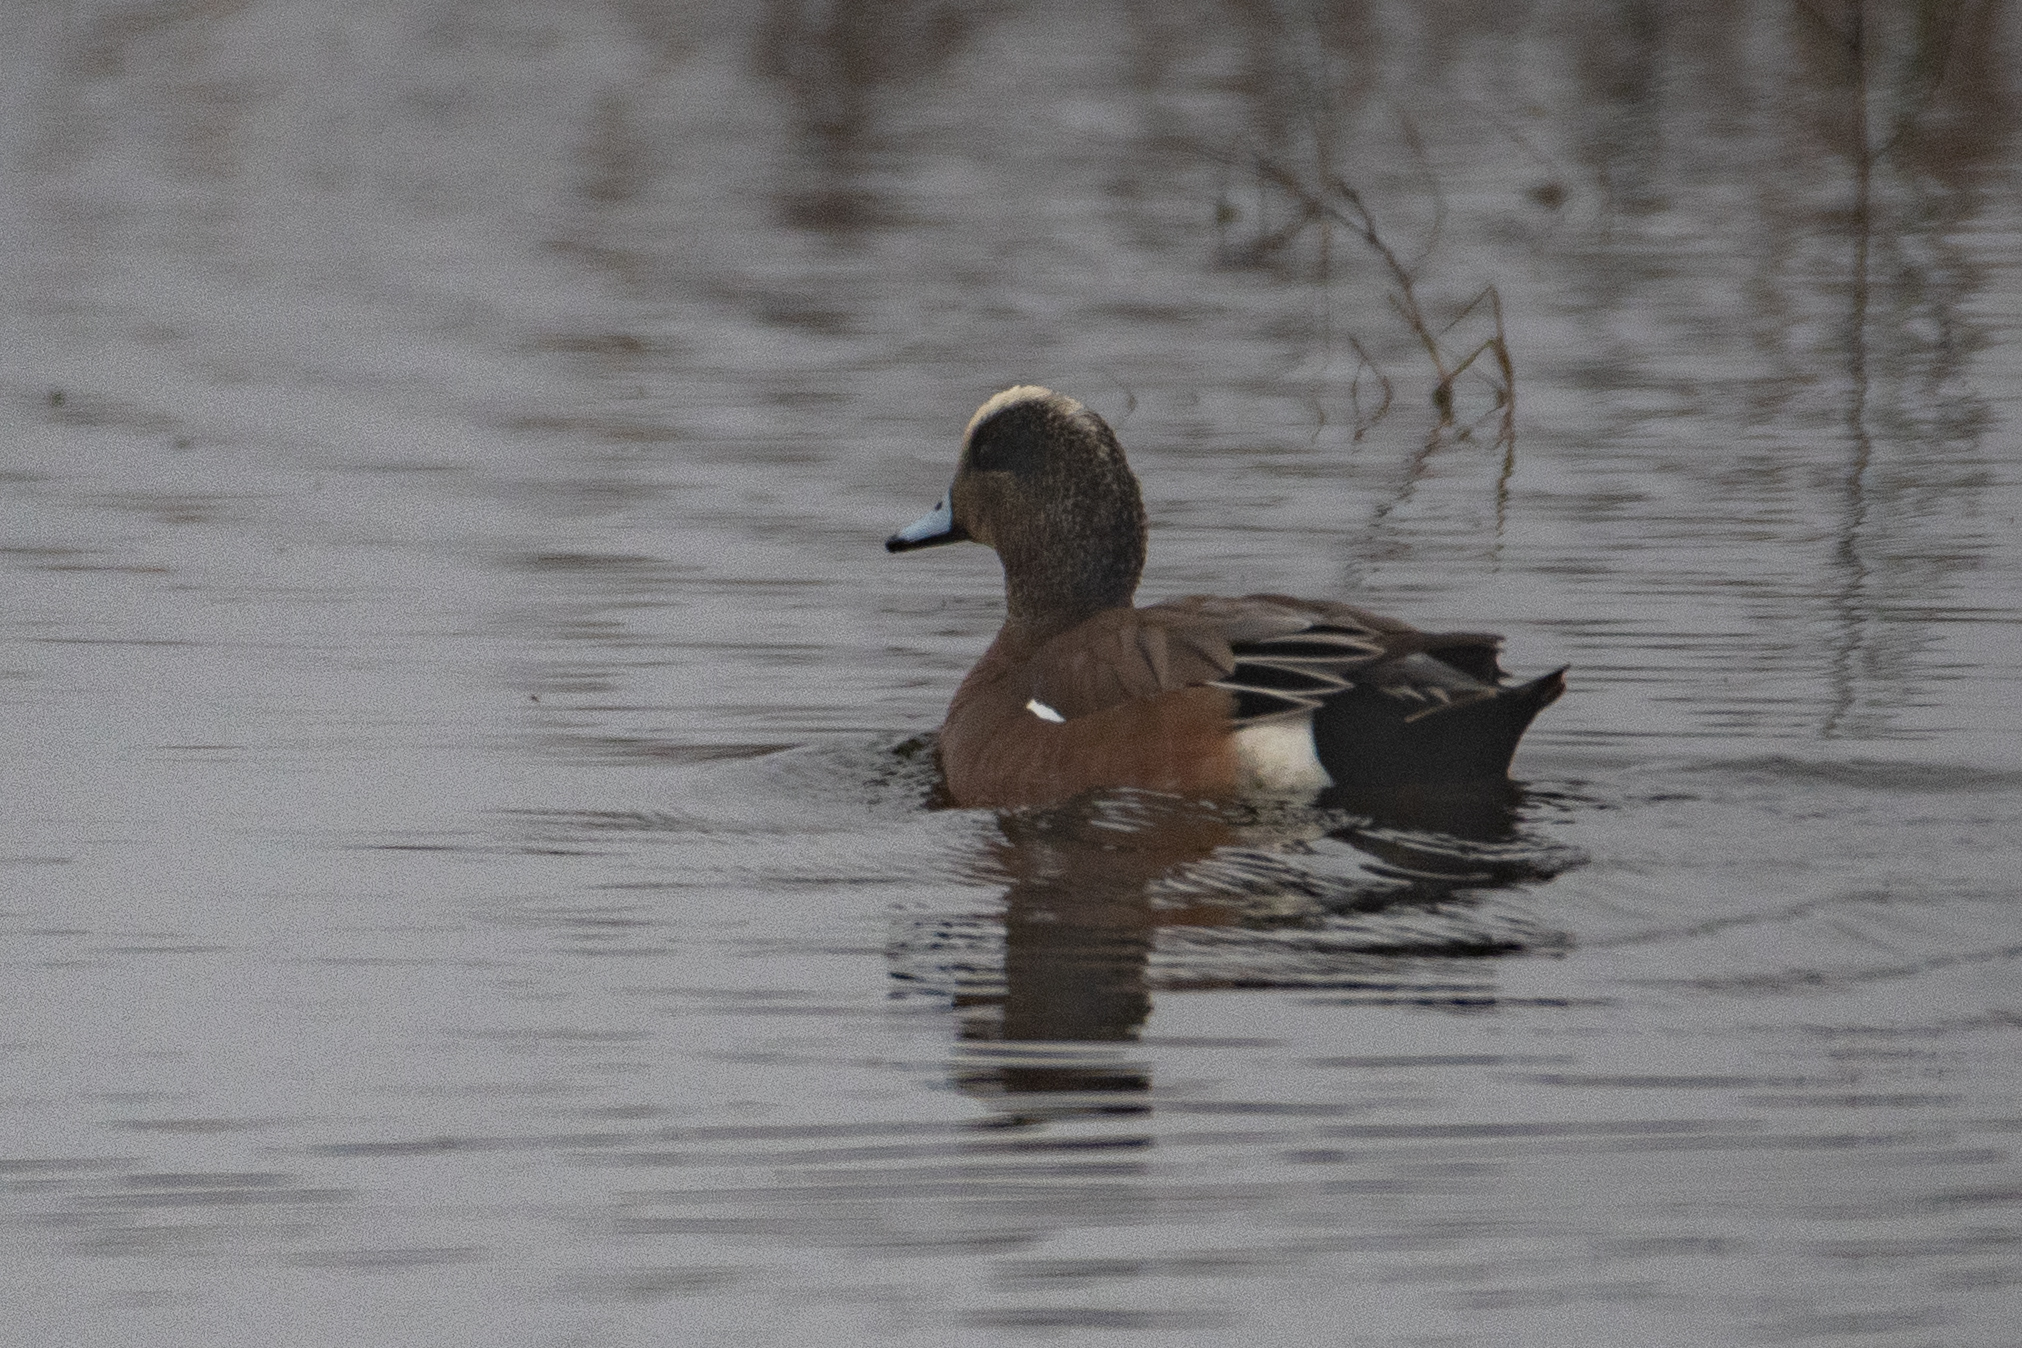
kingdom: Animalia
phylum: Chordata
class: Aves
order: Anseriformes
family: Anatidae
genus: Mareca
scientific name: Mareca americana
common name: American wigeon
